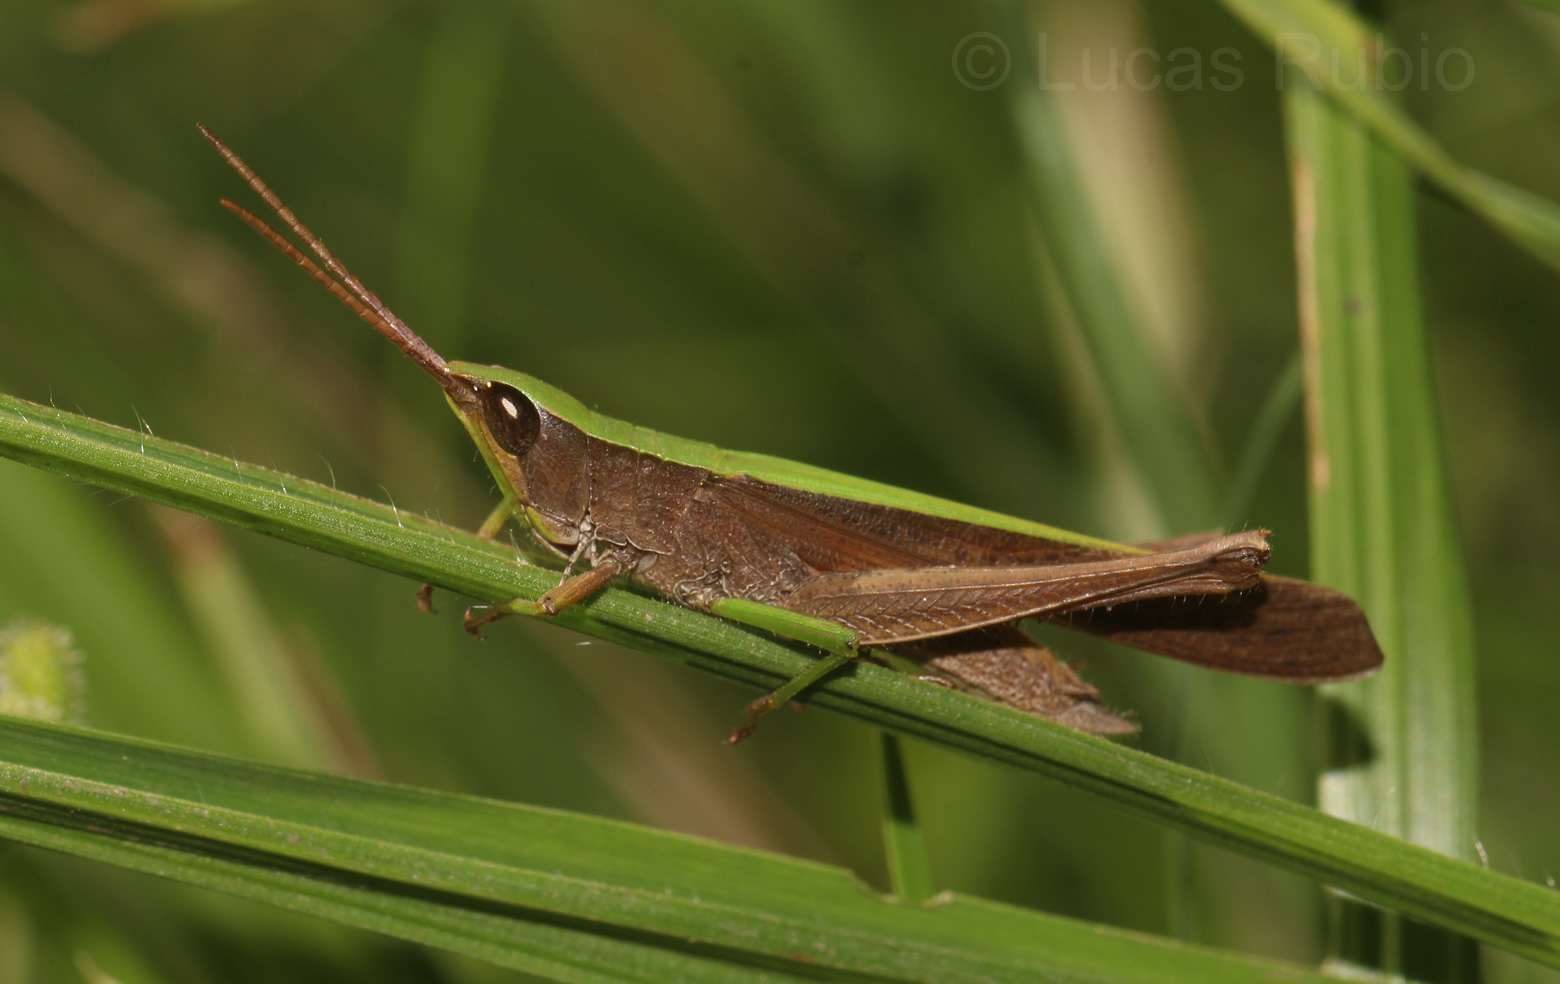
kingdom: Animalia
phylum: Arthropoda
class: Insecta
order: Orthoptera
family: Acrididae
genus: Metaleptea
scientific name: Metaleptea adspersa
